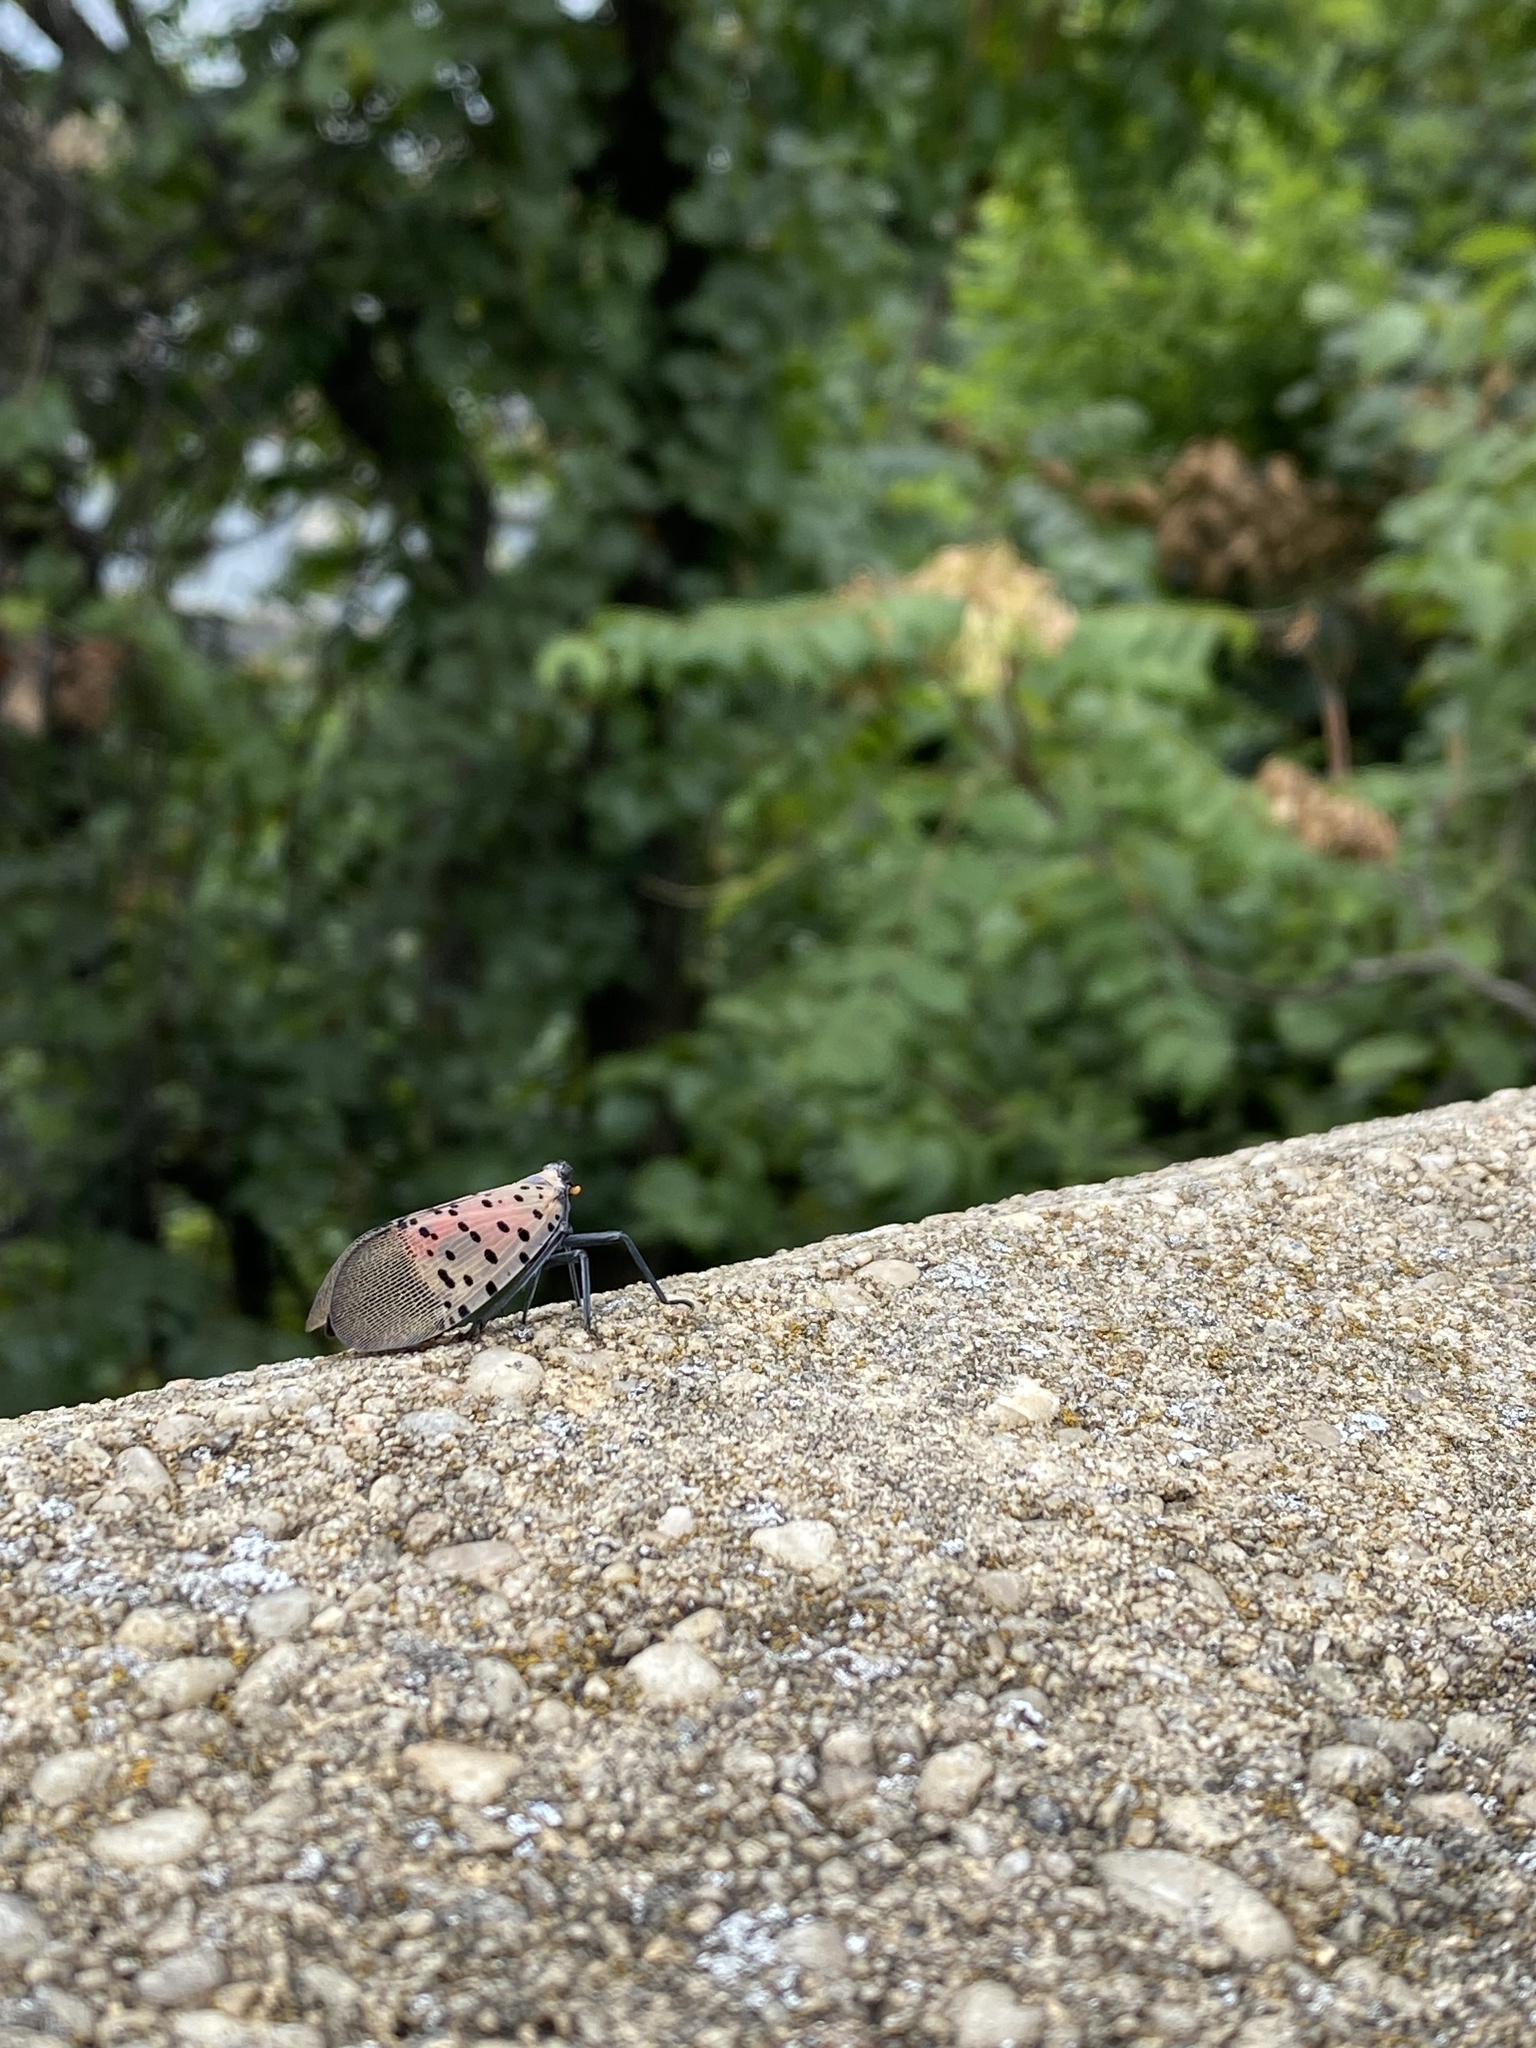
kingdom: Animalia
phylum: Arthropoda
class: Insecta
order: Hemiptera
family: Fulgoridae
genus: Lycorma
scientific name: Lycorma delicatula
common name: Spotted lanternfly
